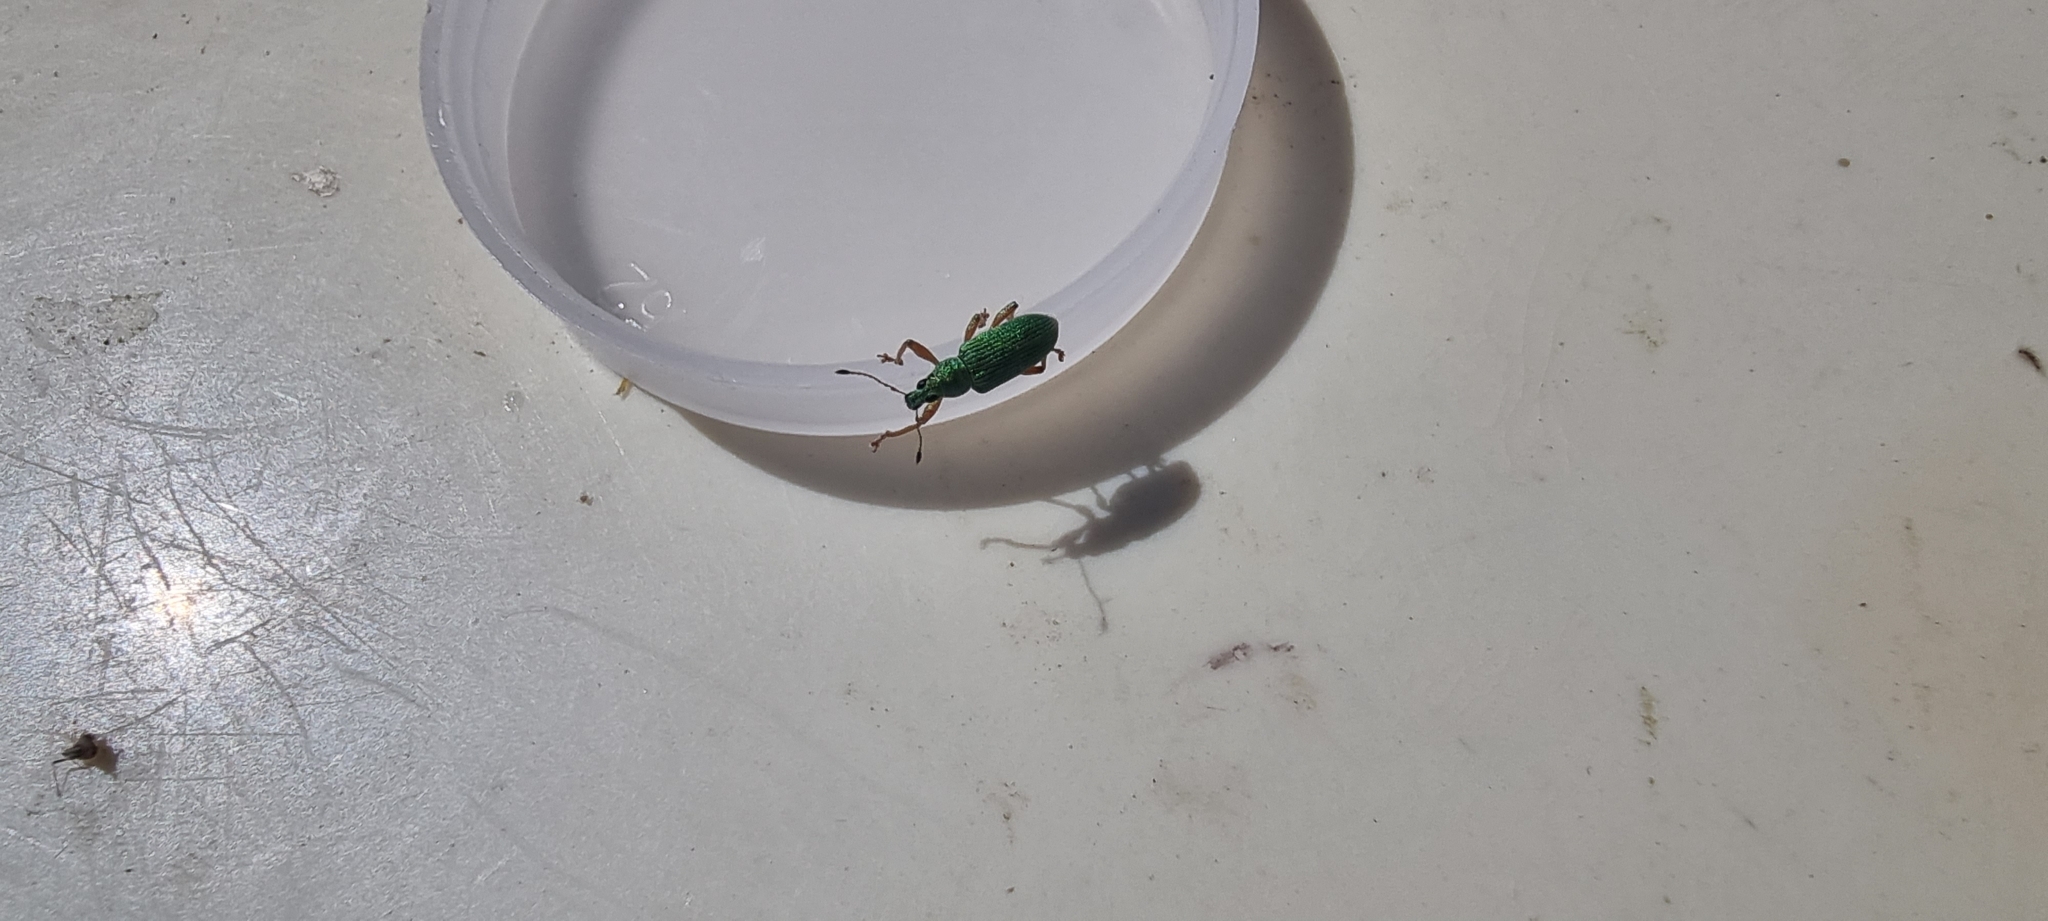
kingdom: Animalia
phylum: Arthropoda
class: Insecta
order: Coleoptera
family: Curculionidae
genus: Polydrusus
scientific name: Polydrusus formosus
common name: Weevil
